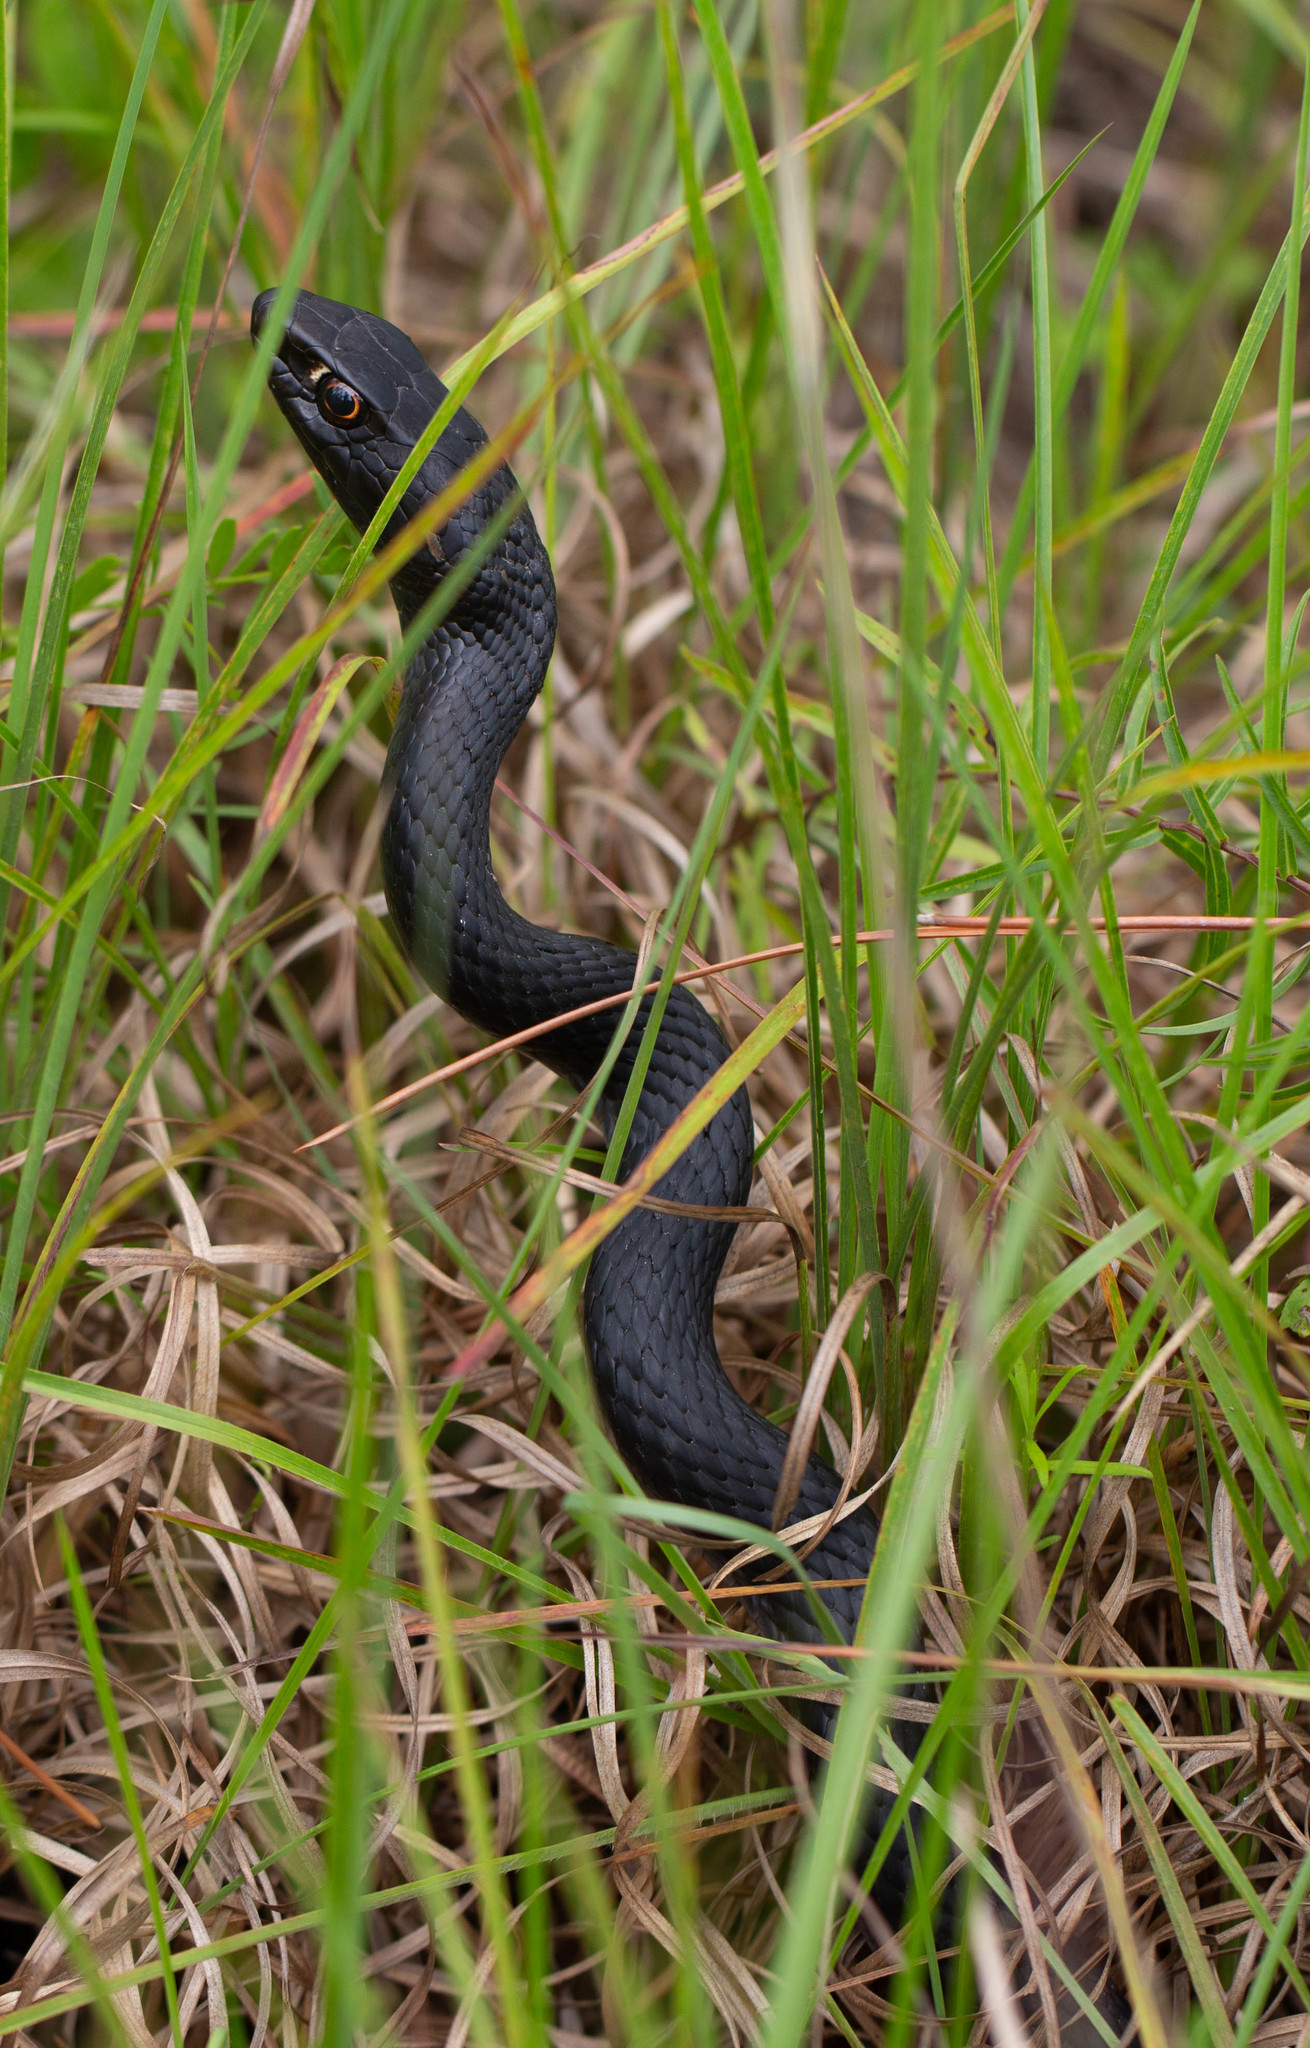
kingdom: Animalia
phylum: Chordata
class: Squamata
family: Colubridae
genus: Masticophis
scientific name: Masticophis flagellum
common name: Coachwhip
